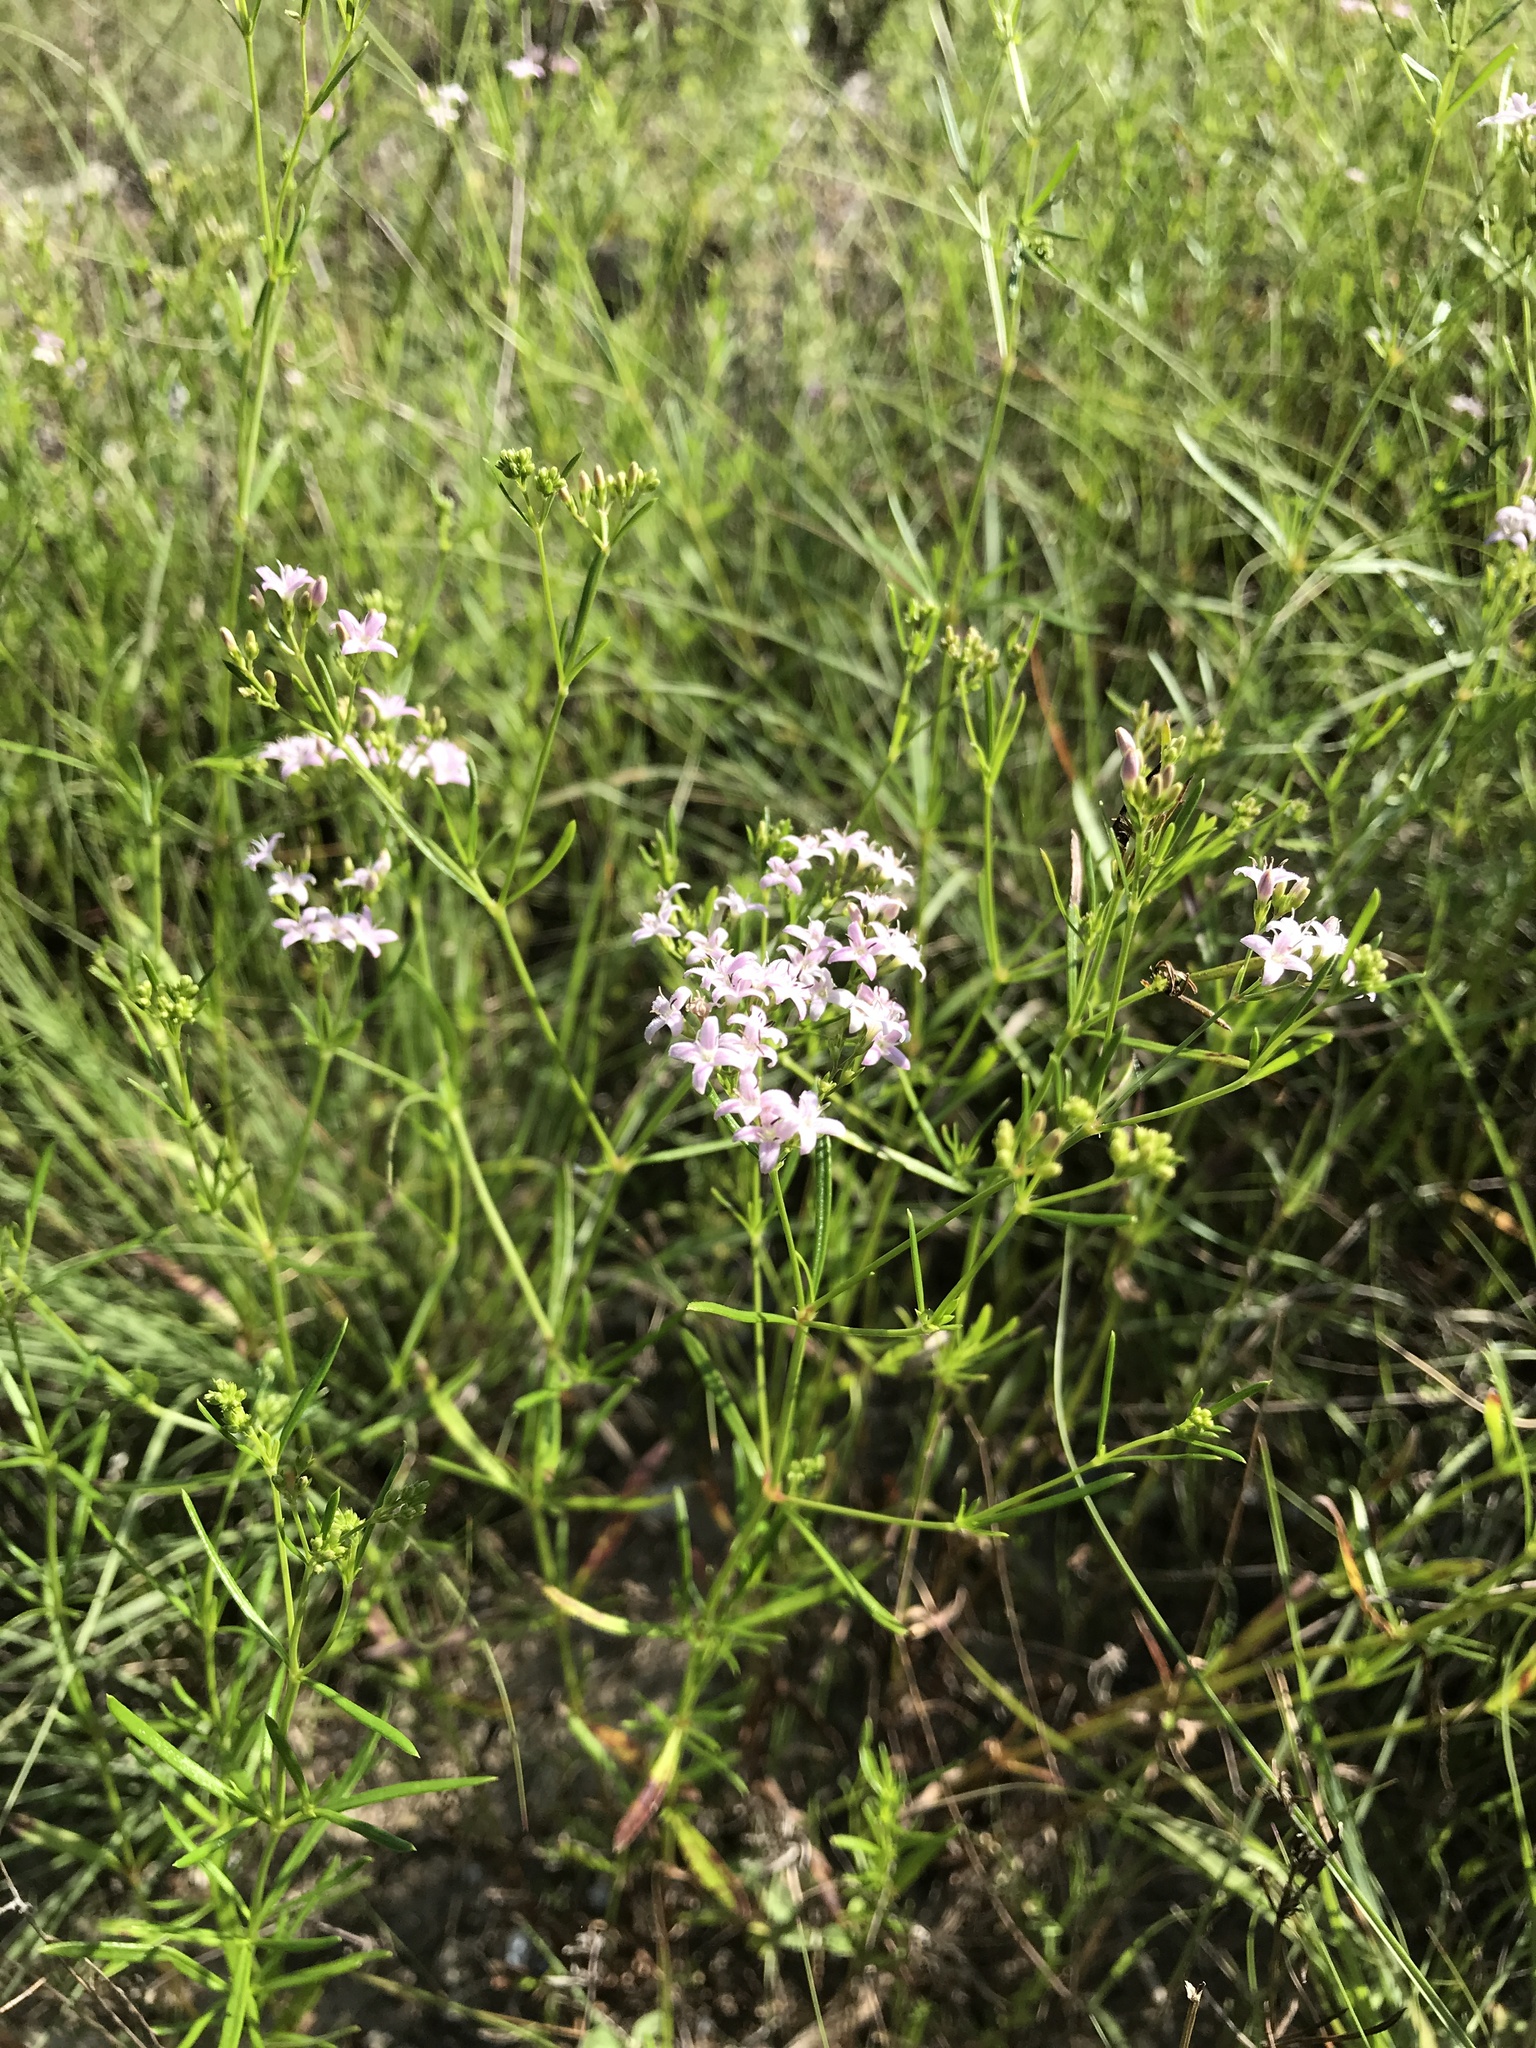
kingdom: Plantae
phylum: Tracheophyta
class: Magnoliopsida
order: Gentianales
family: Rubiaceae
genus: Stenaria
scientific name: Stenaria nigricans
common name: Diamondflowers
